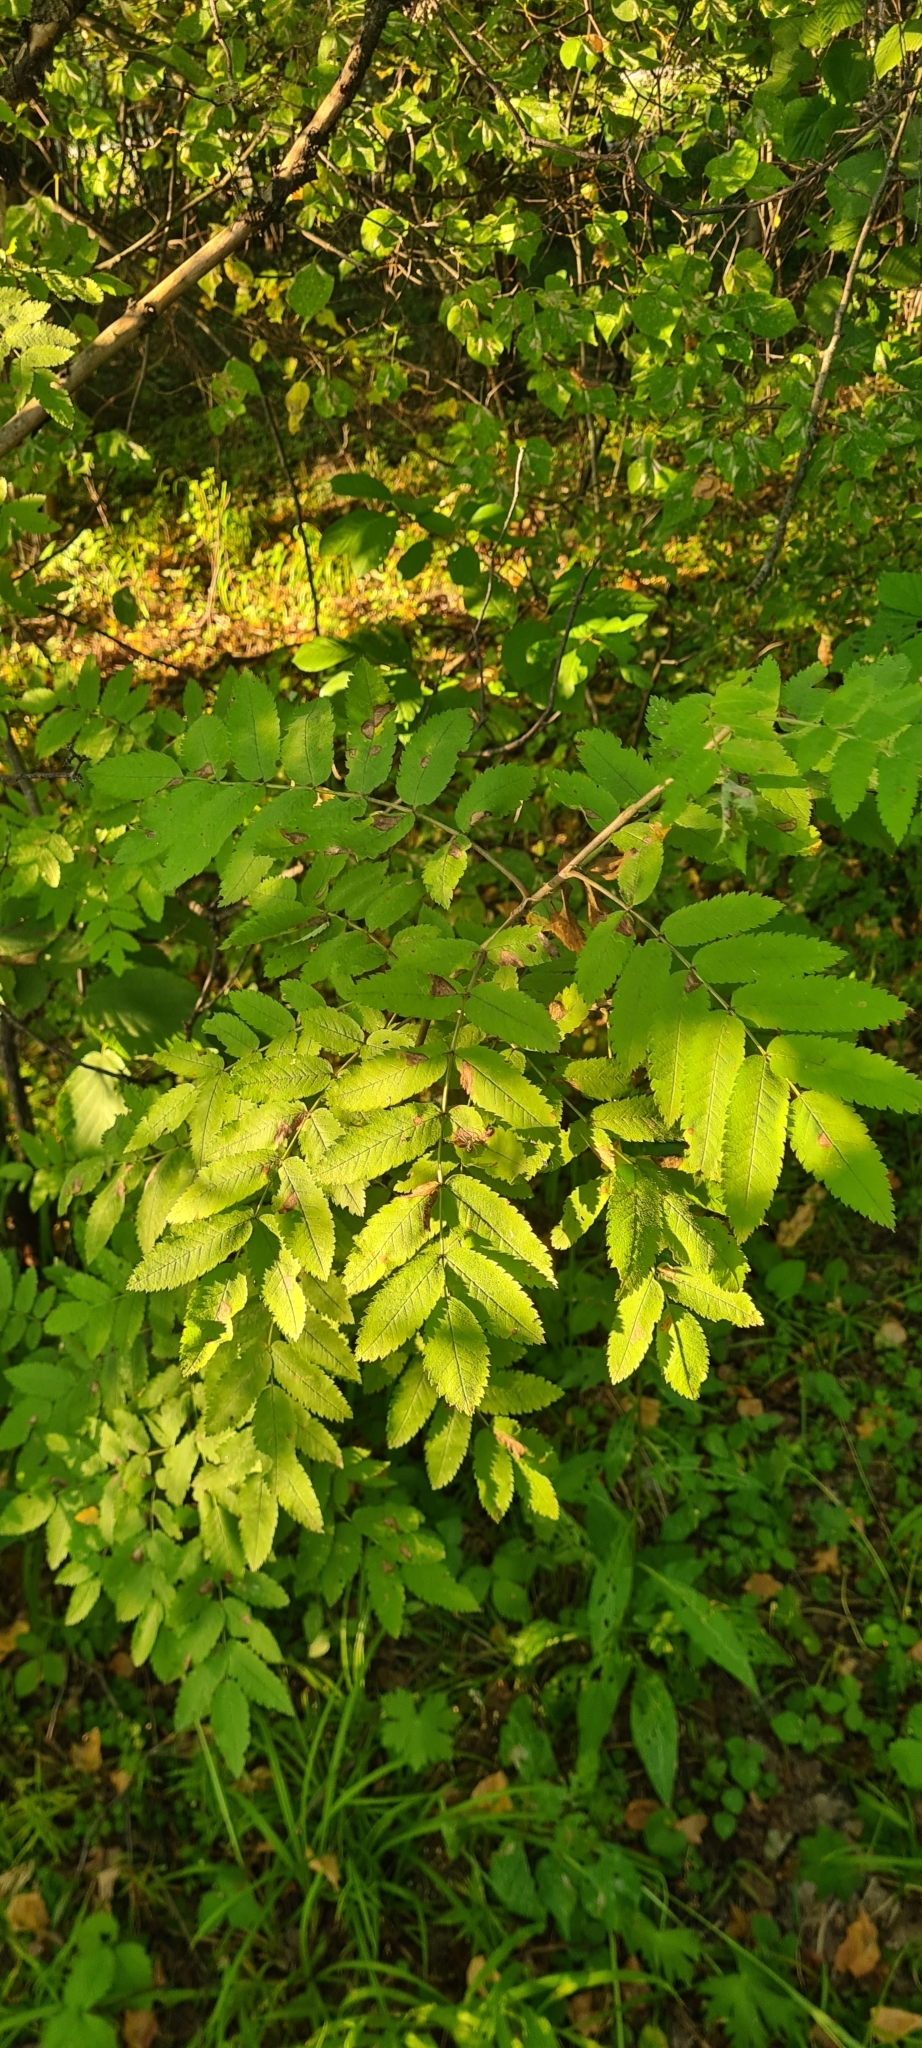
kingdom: Plantae
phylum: Tracheophyta
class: Magnoliopsida
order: Rosales
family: Rosaceae
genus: Sorbus
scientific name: Sorbus aucuparia
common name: Rowan
